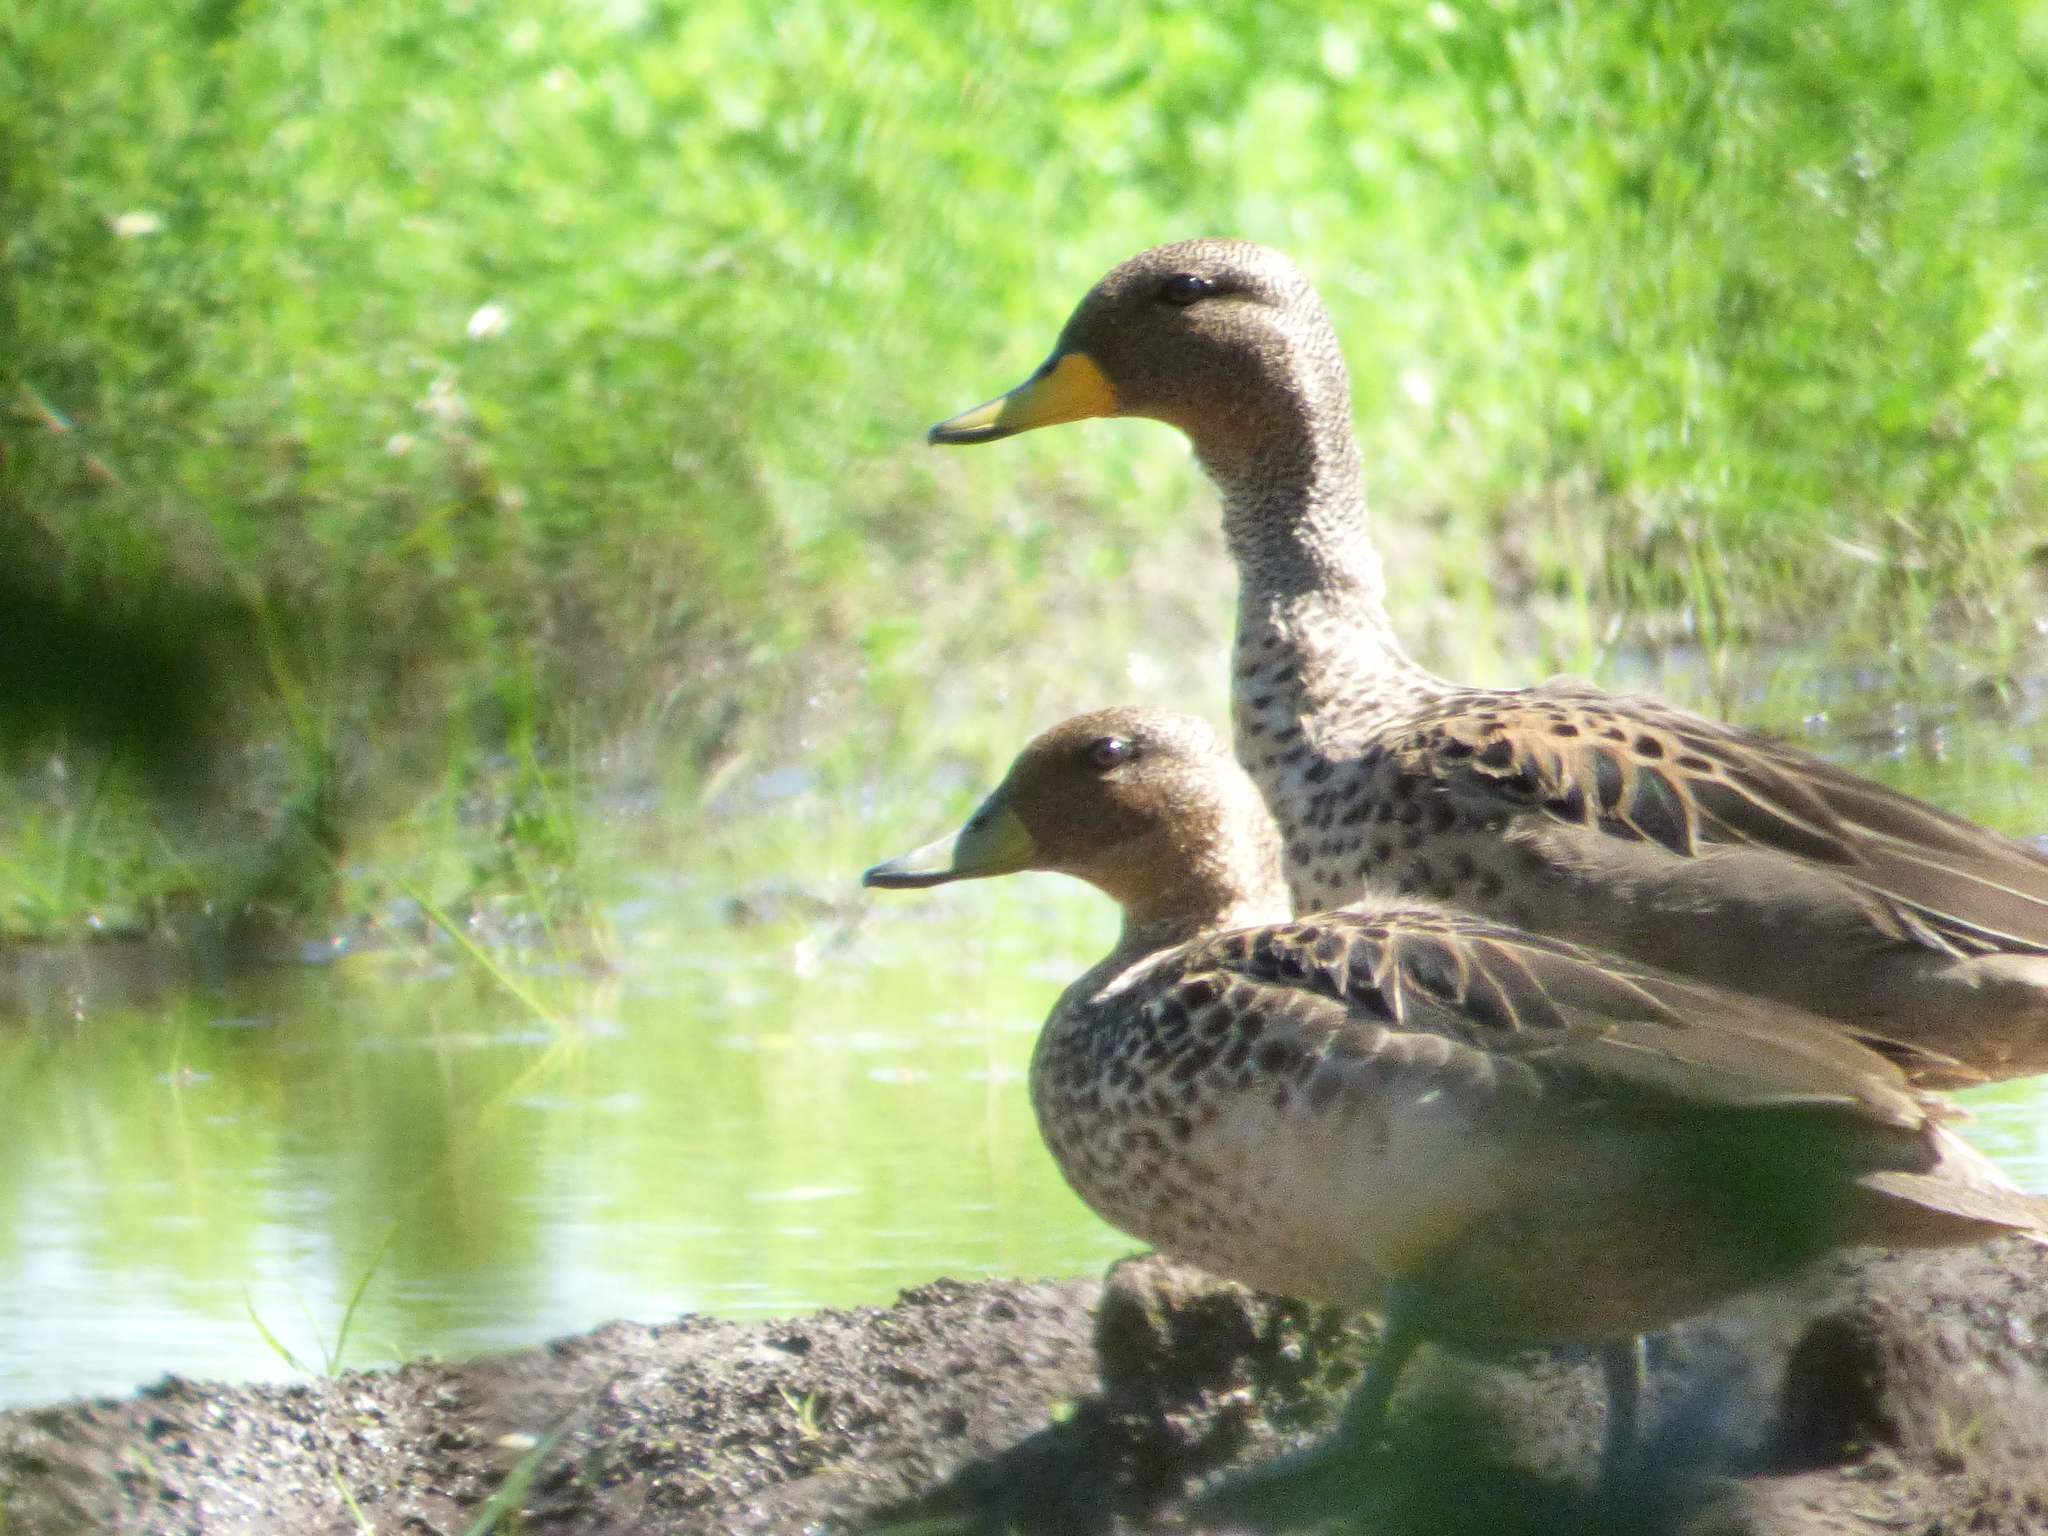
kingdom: Animalia
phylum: Chordata
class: Aves
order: Anseriformes
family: Anatidae
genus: Anas
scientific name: Anas flavirostris
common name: Yellow-billed teal
